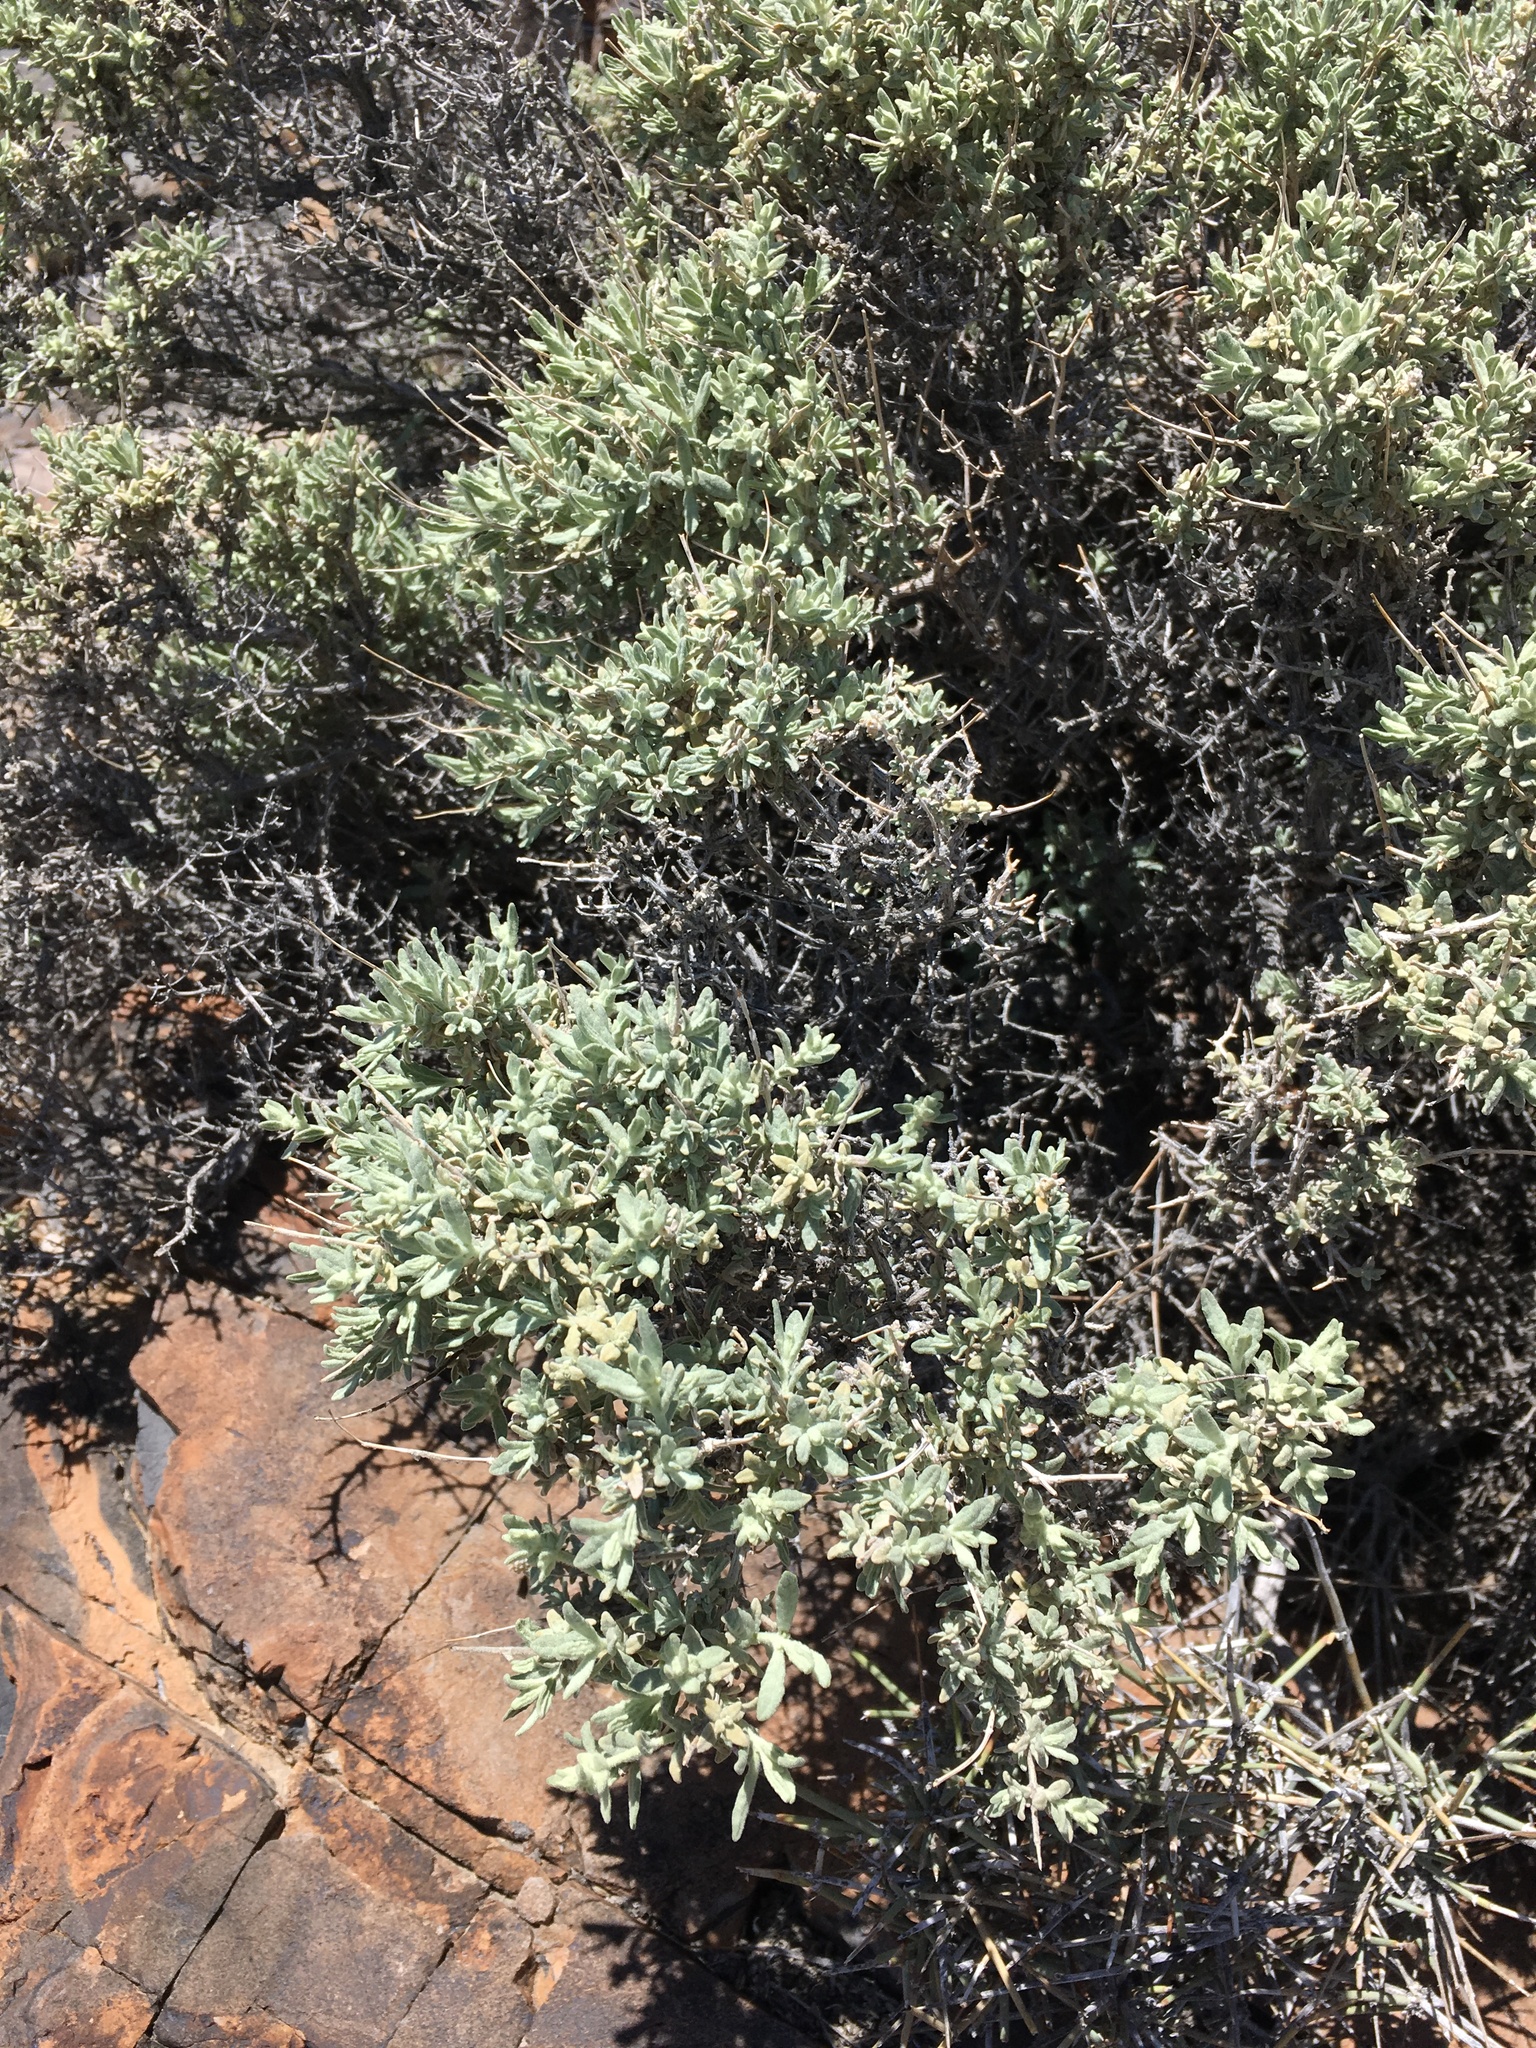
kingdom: Plantae
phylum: Tracheophyta
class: Magnoliopsida
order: Lamiales
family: Scrophulariaceae
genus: Buddleja
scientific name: Buddleja utahensis
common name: Utah butterfly-bush
